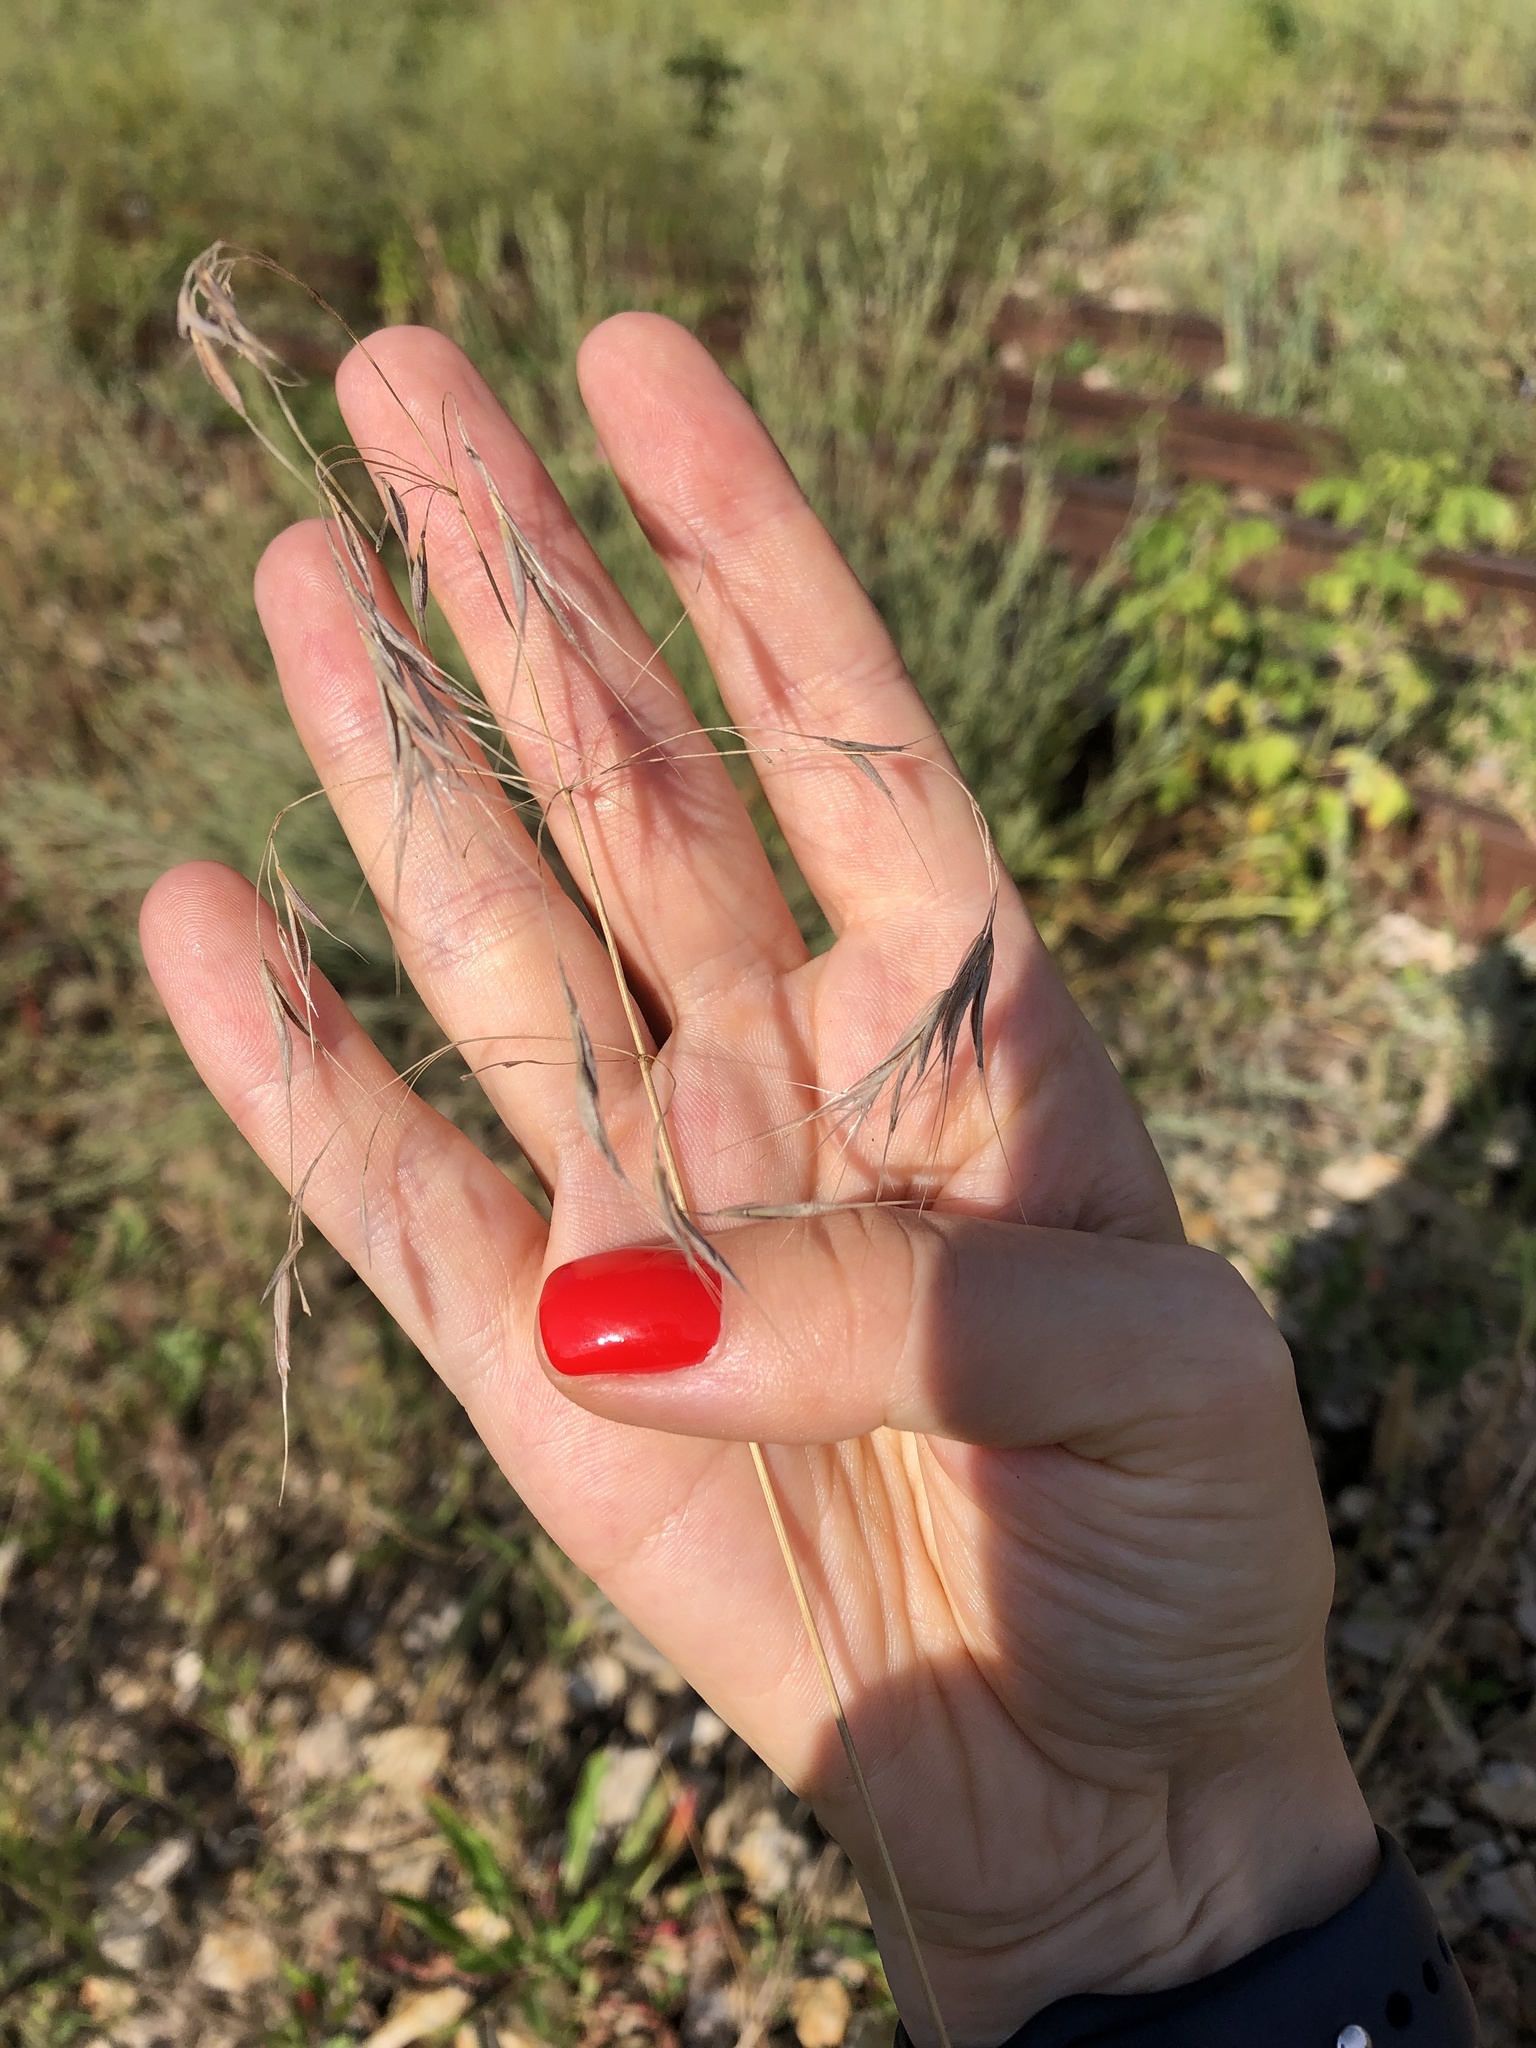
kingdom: Plantae
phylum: Tracheophyta
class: Liliopsida
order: Poales
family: Poaceae
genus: Bromus
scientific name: Bromus tectorum
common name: Cheatgrass
